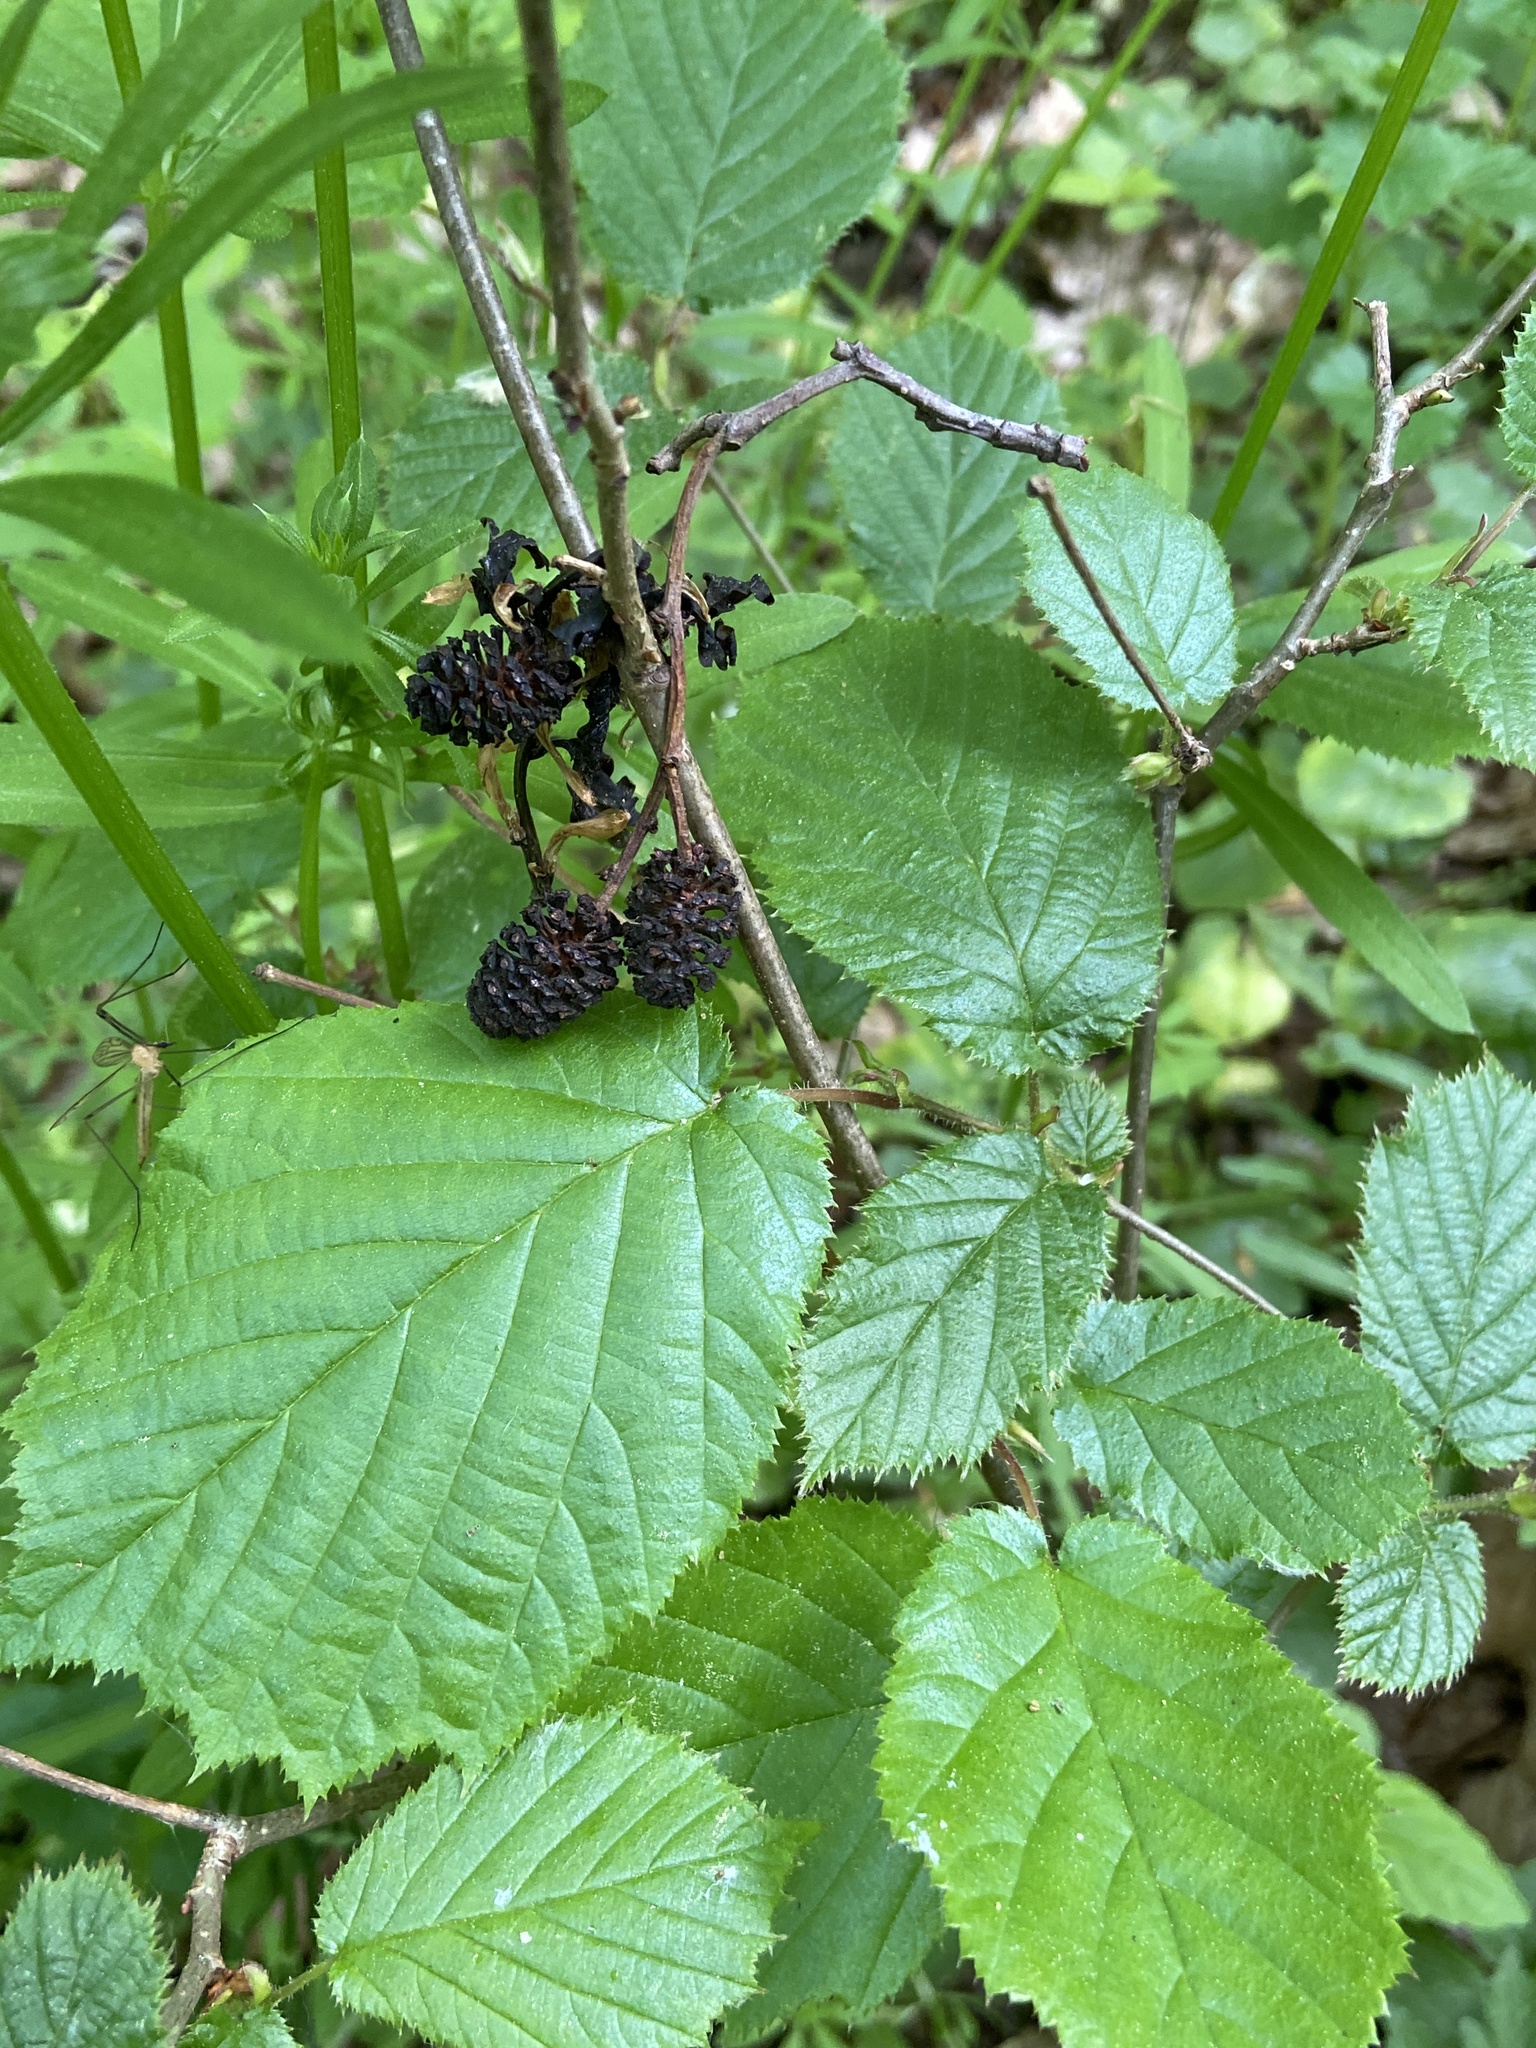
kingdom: Plantae
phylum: Tracheophyta
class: Magnoliopsida
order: Fagales
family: Betulaceae
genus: Corylus
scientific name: Corylus avellana
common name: European hazel
